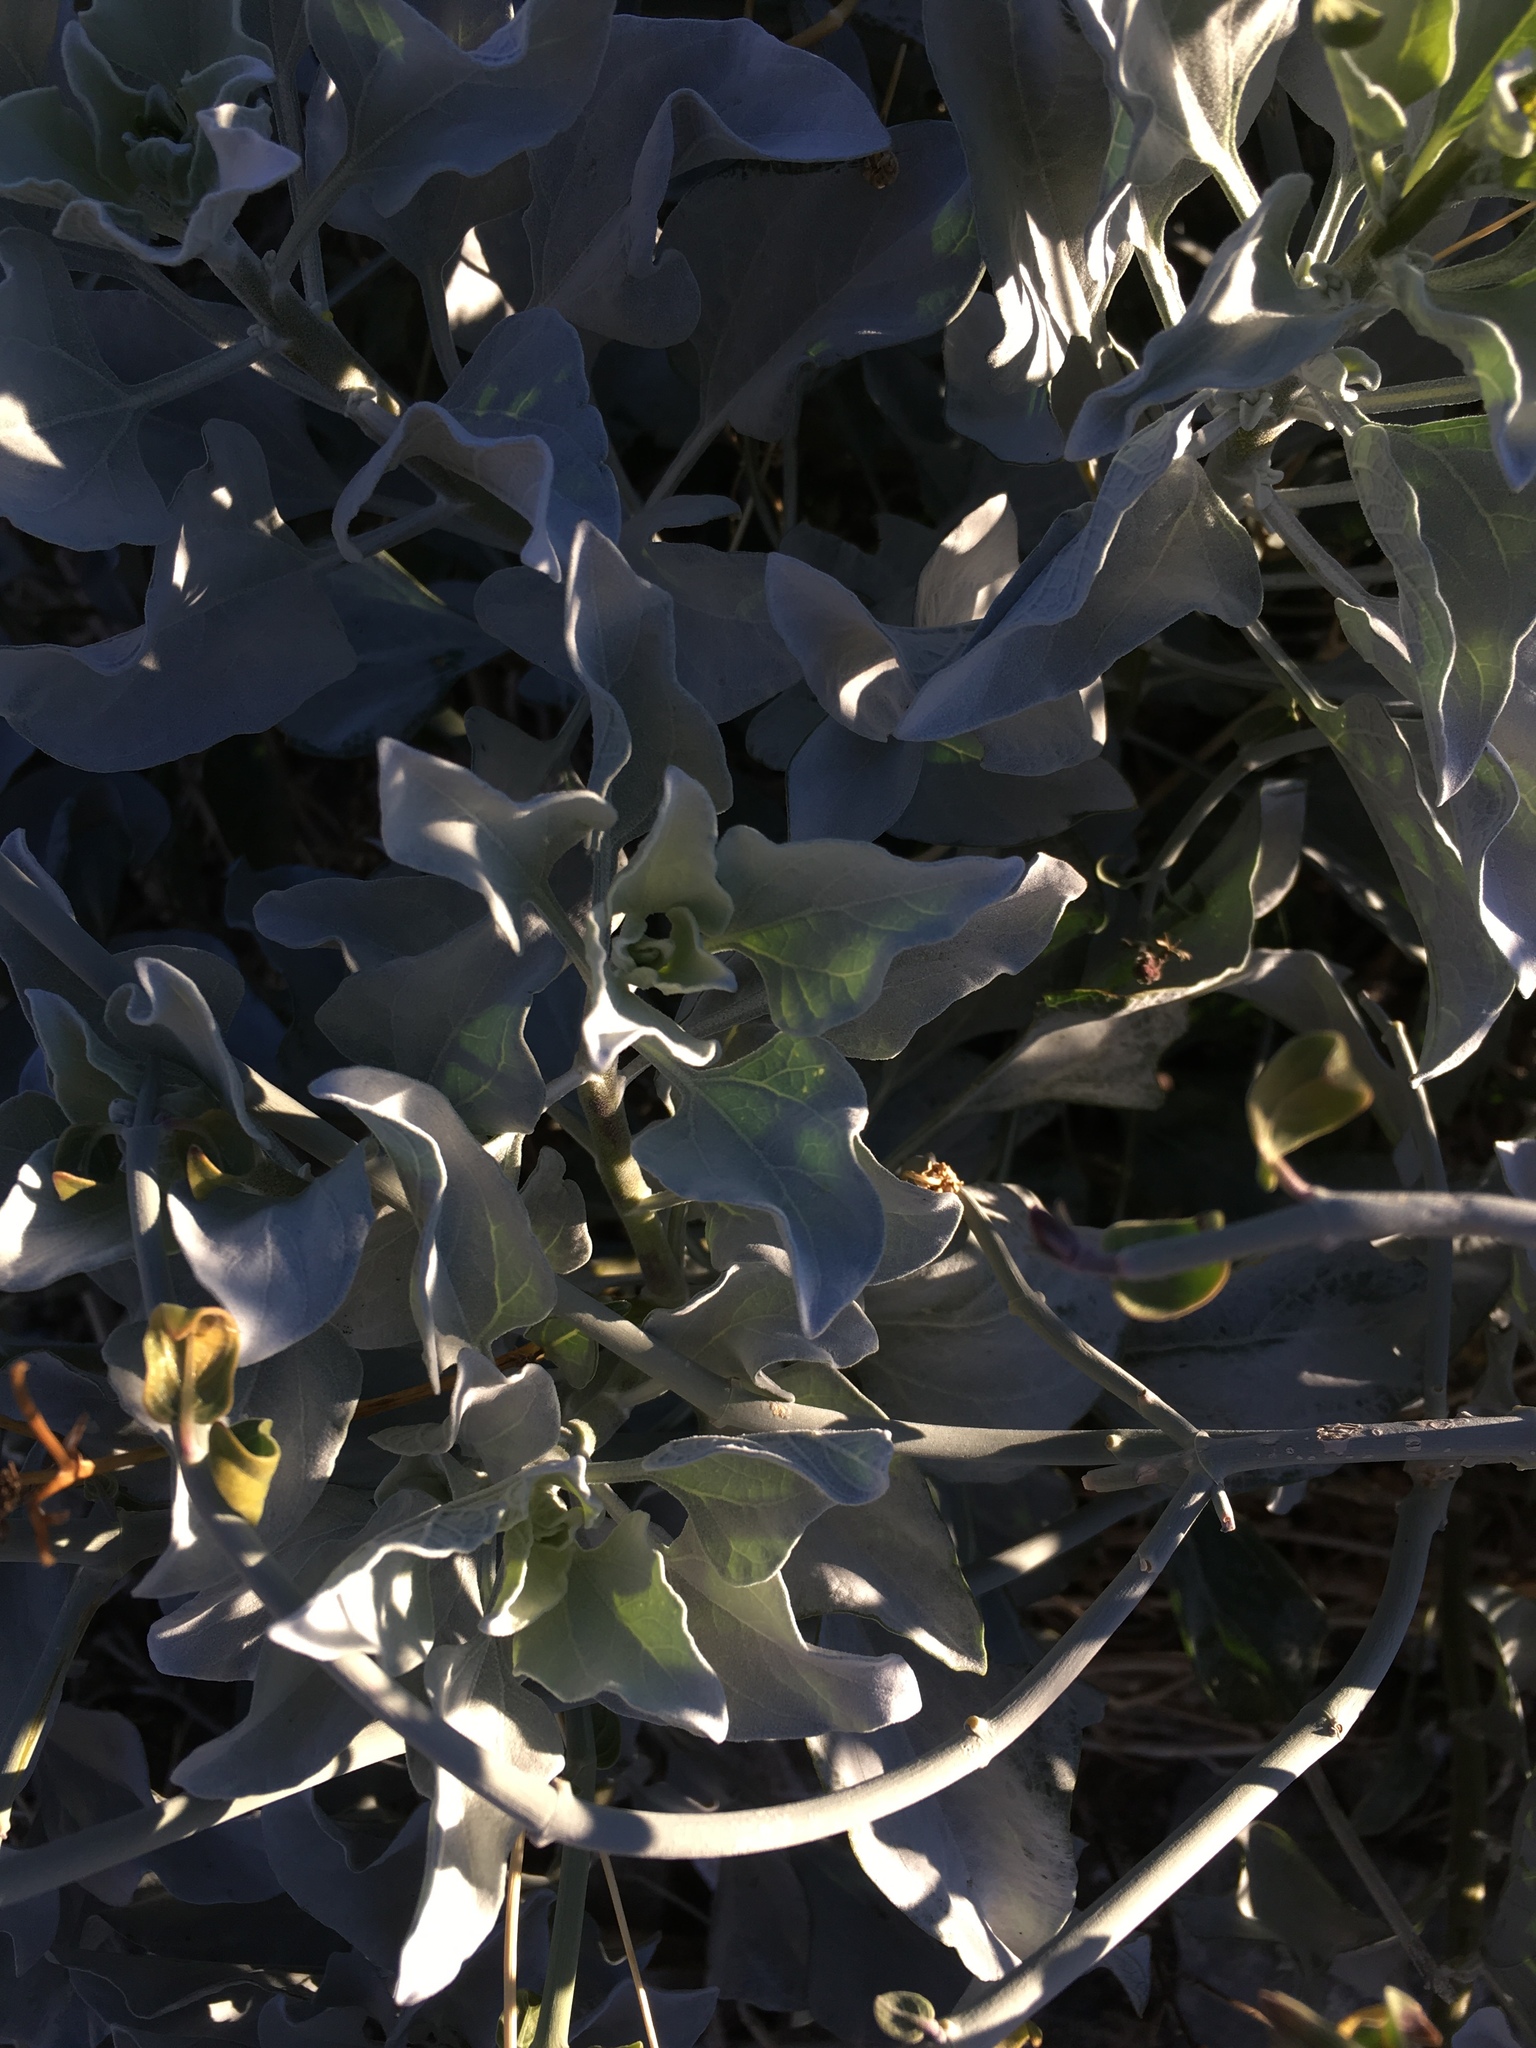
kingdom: Plantae
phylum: Tracheophyta
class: Magnoliopsida
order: Asterales
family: Asteraceae
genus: Encelia
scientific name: Encelia farinosa
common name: Brittlebush
